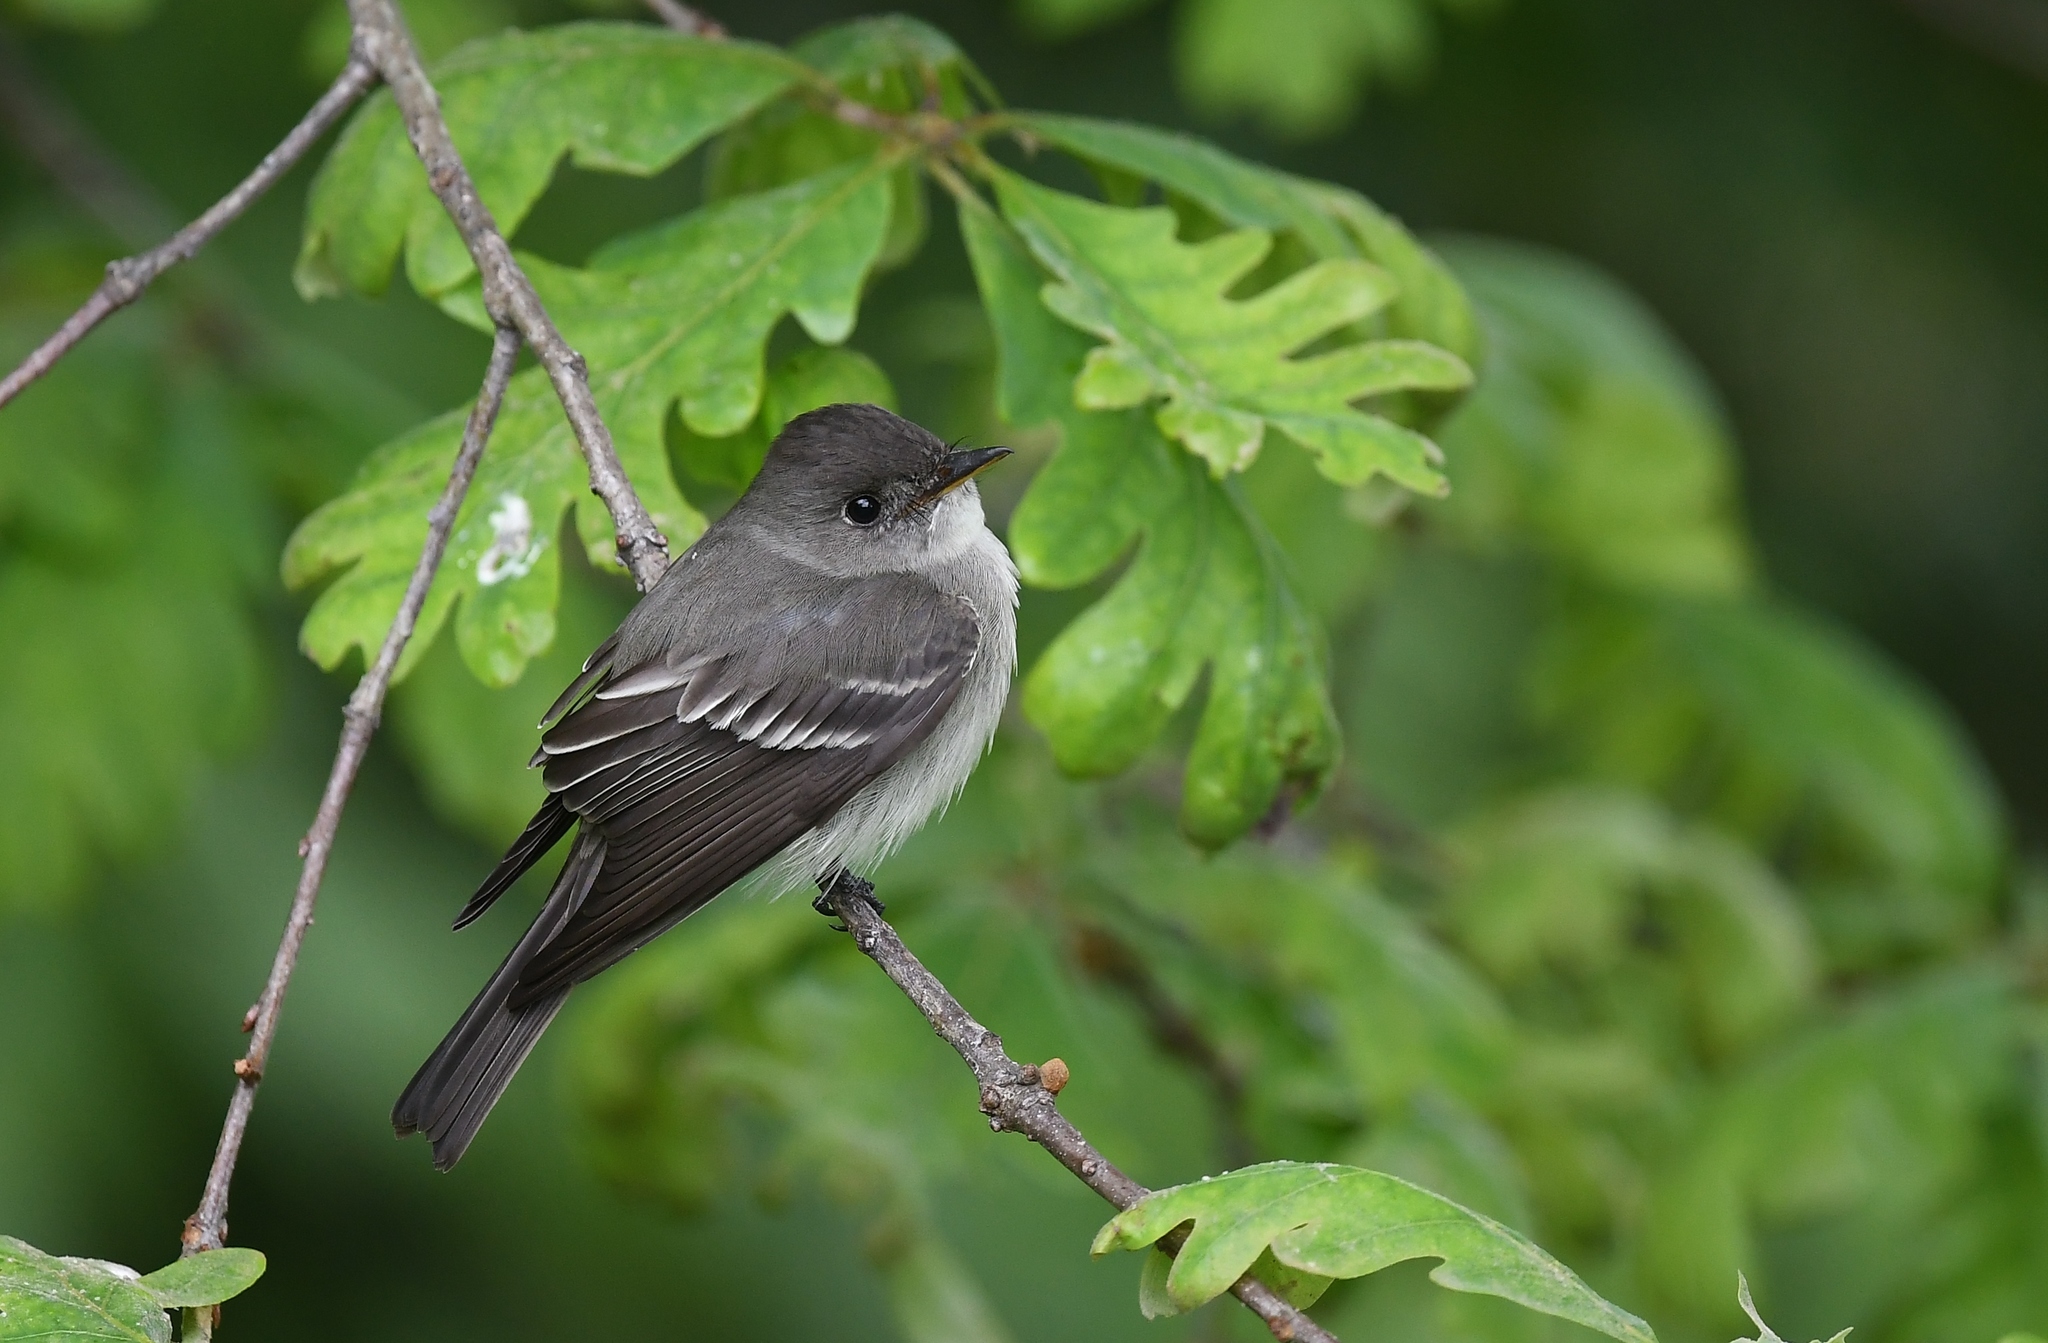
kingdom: Animalia
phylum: Chordata
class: Aves
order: Passeriformes
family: Tyrannidae
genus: Contopus
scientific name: Contopus virens
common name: Eastern wood-pewee
